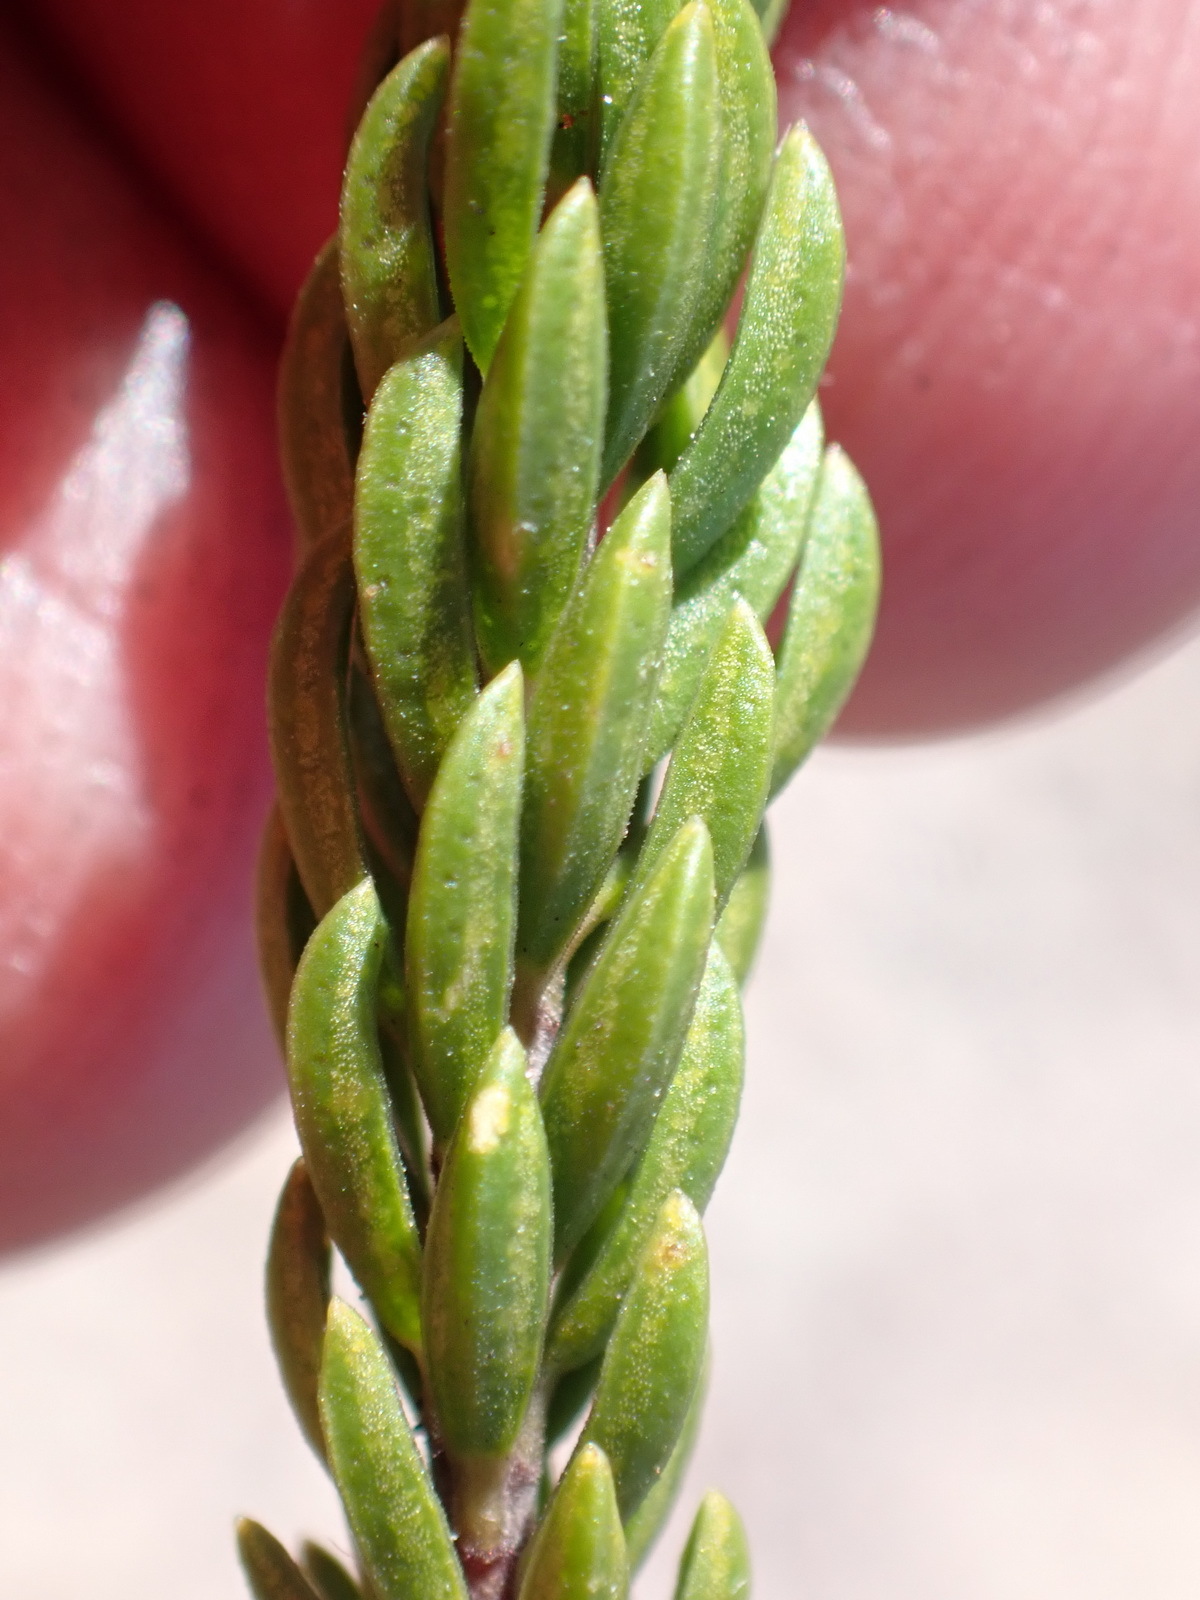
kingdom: Plantae
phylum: Tracheophyta
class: Magnoliopsida
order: Sapindales
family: Rutaceae
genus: Acmadenia
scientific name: Acmadenia alternifolia
